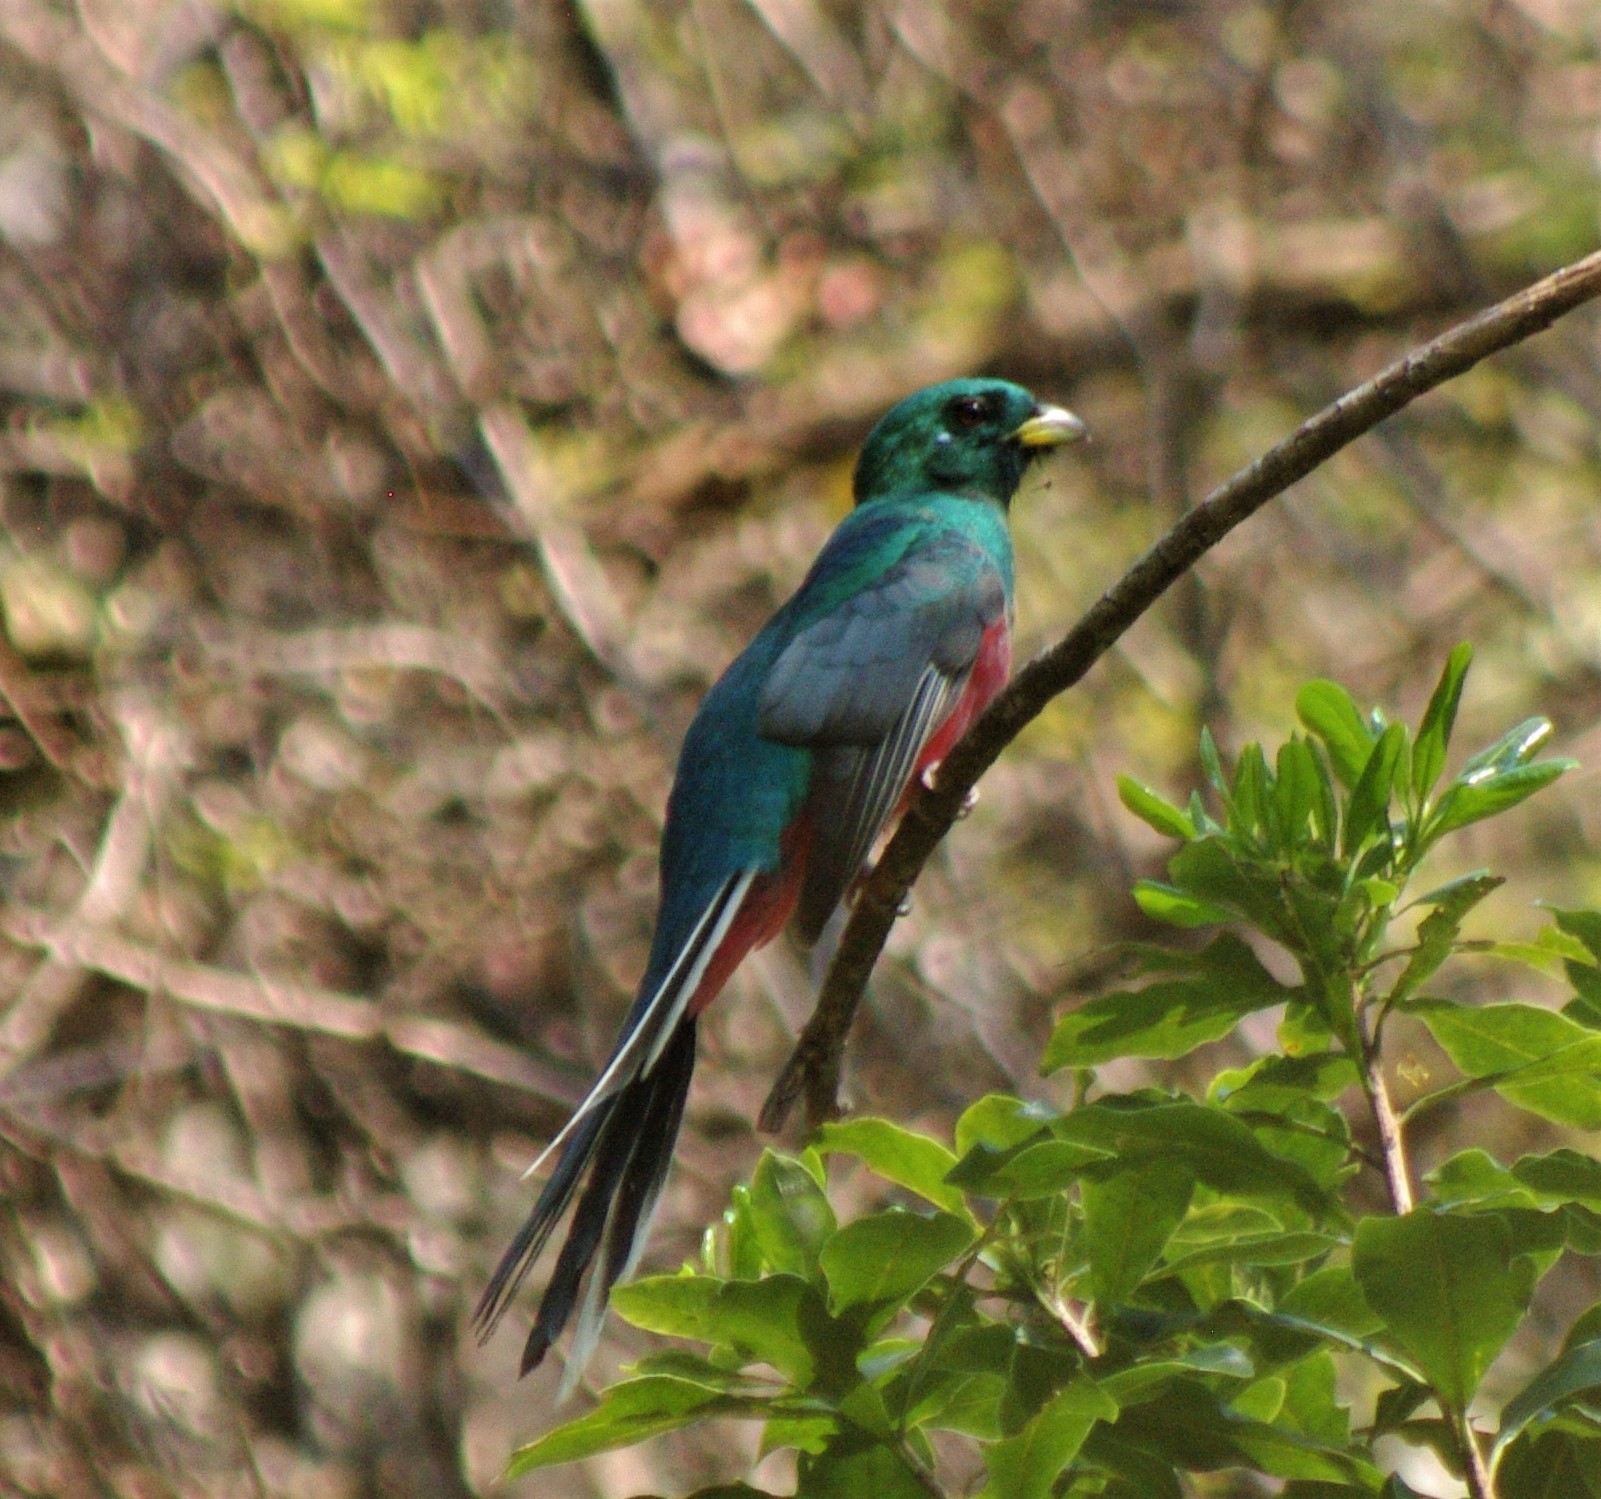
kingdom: Animalia
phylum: Chordata
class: Aves
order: Trogoniformes
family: Trogonidae
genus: Apaloderma
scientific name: Apaloderma narina
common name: Narina trogon
